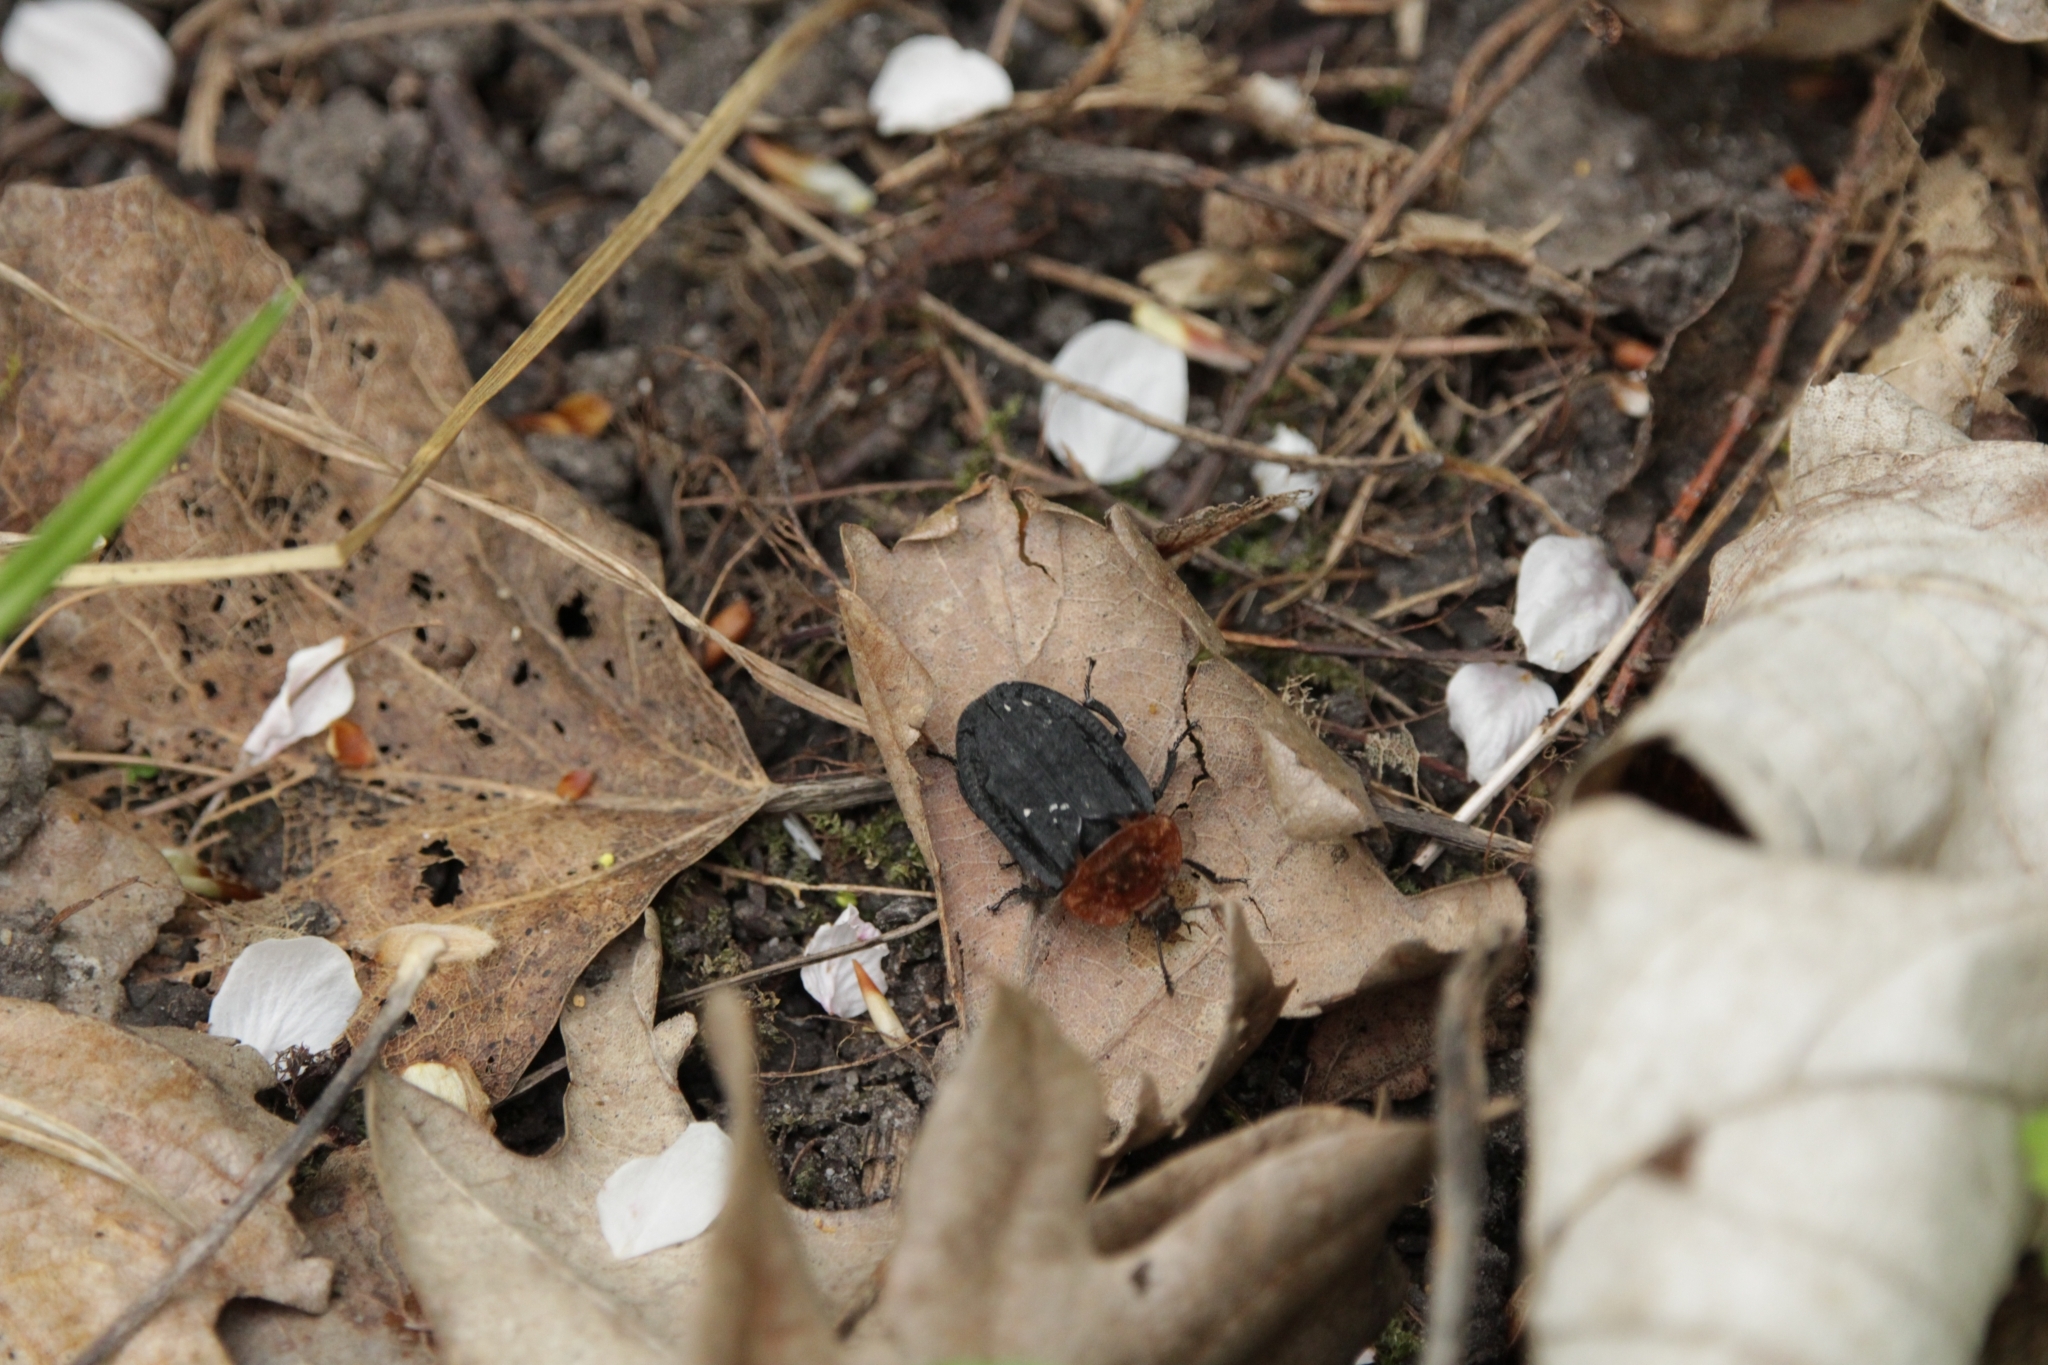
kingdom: Animalia
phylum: Arthropoda
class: Insecta
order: Coleoptera
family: Staphylinidae
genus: Oiceoptoma
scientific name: Oiceoptoma thoracicum
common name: Red-breasted carrion beetle
